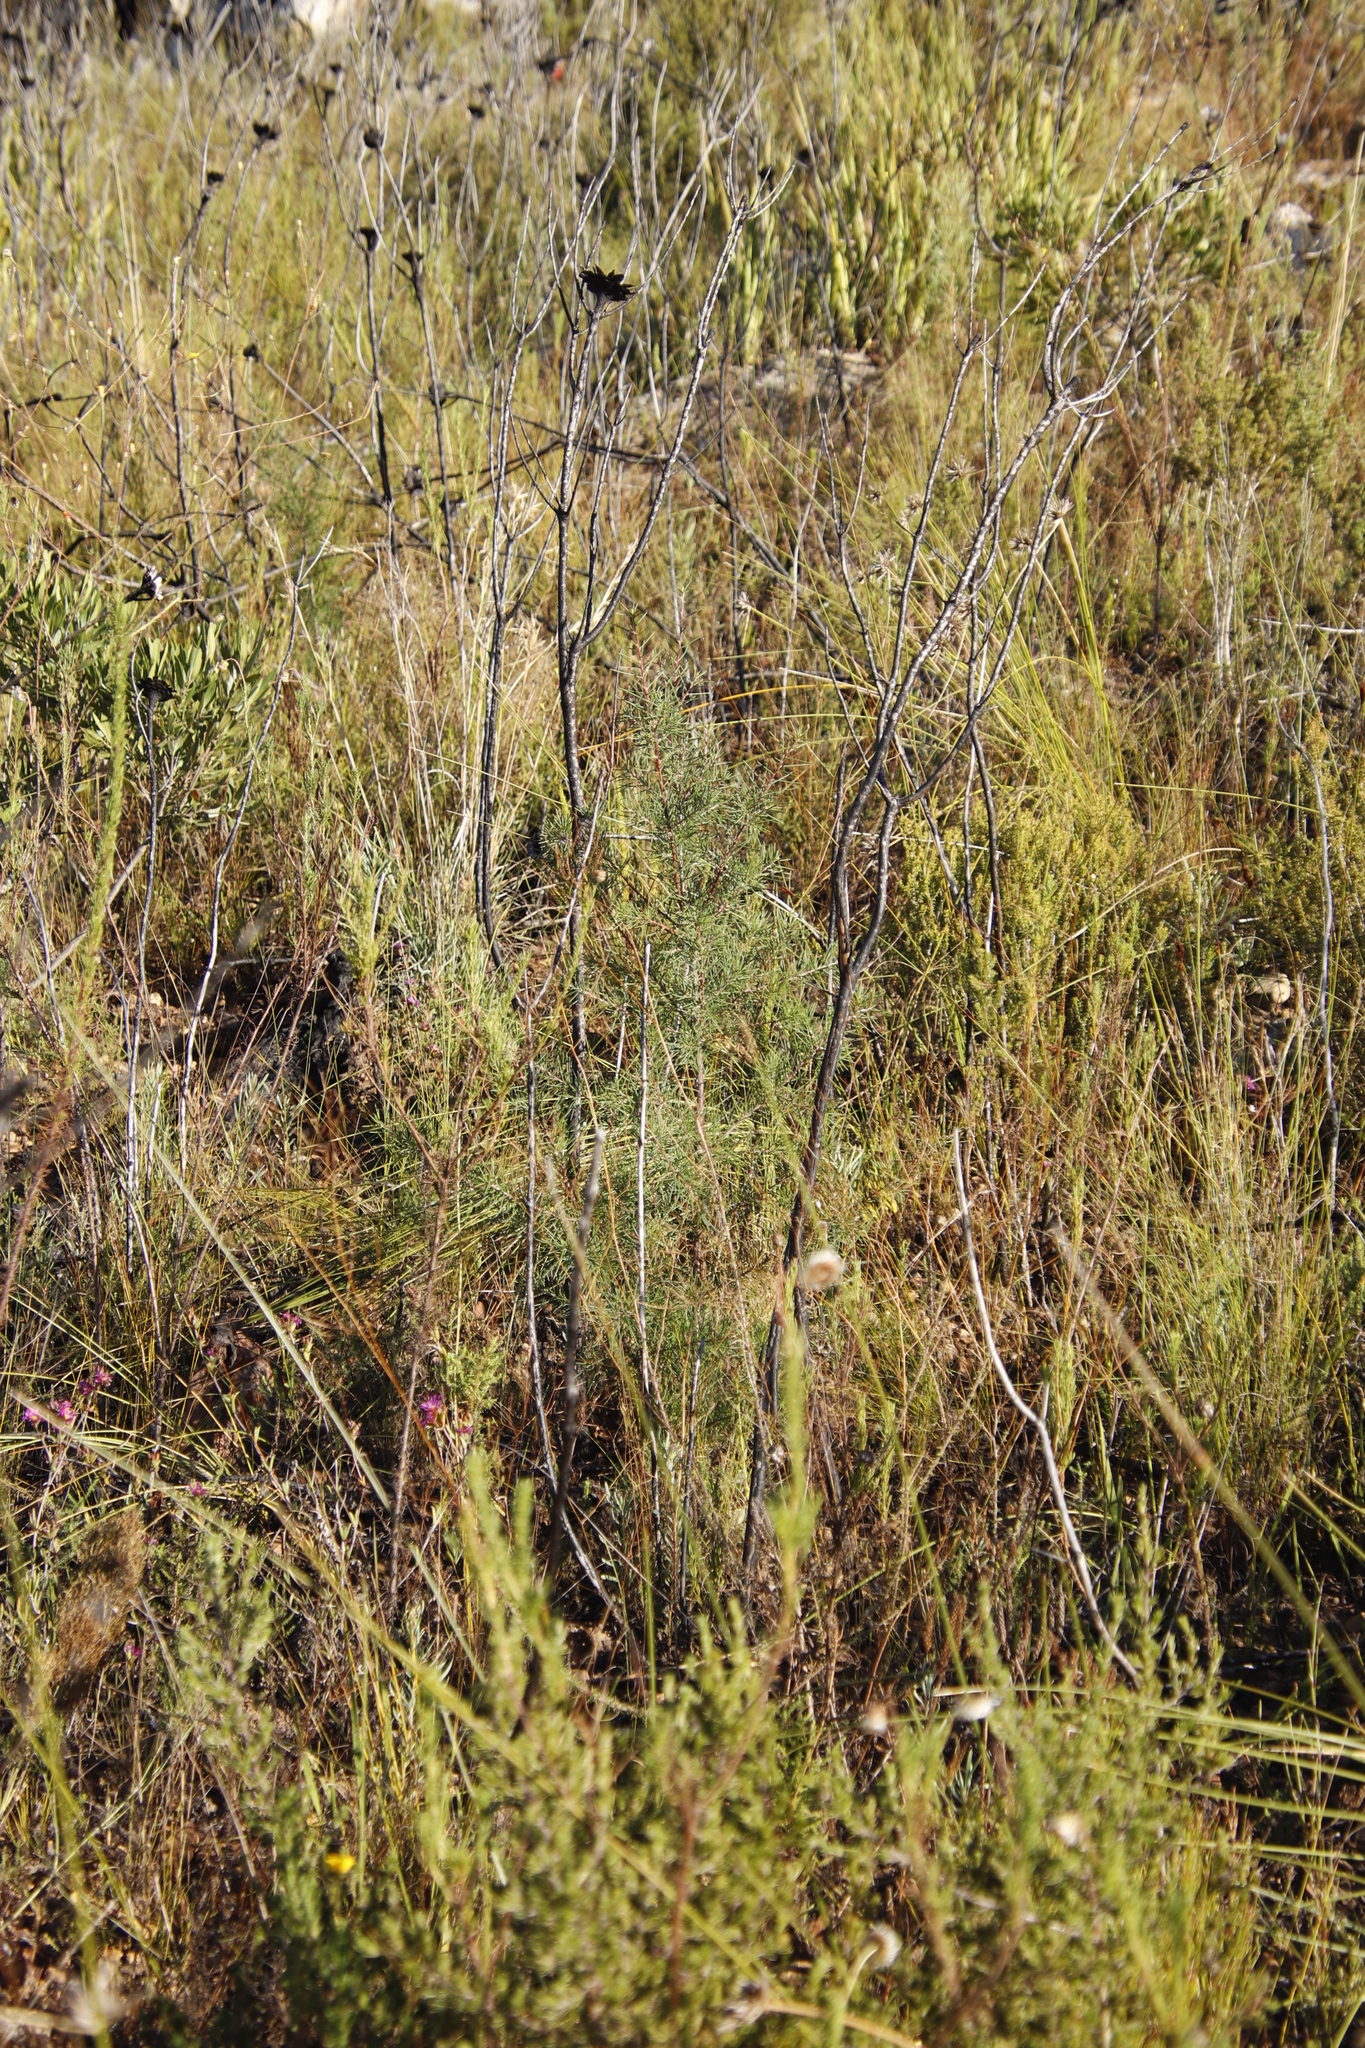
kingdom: Plantae
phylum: Tracheophyta
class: Magnoliopsida
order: Proteales
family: Proteaceae
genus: Hakea
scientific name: Hakea sericea
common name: Needle bush
